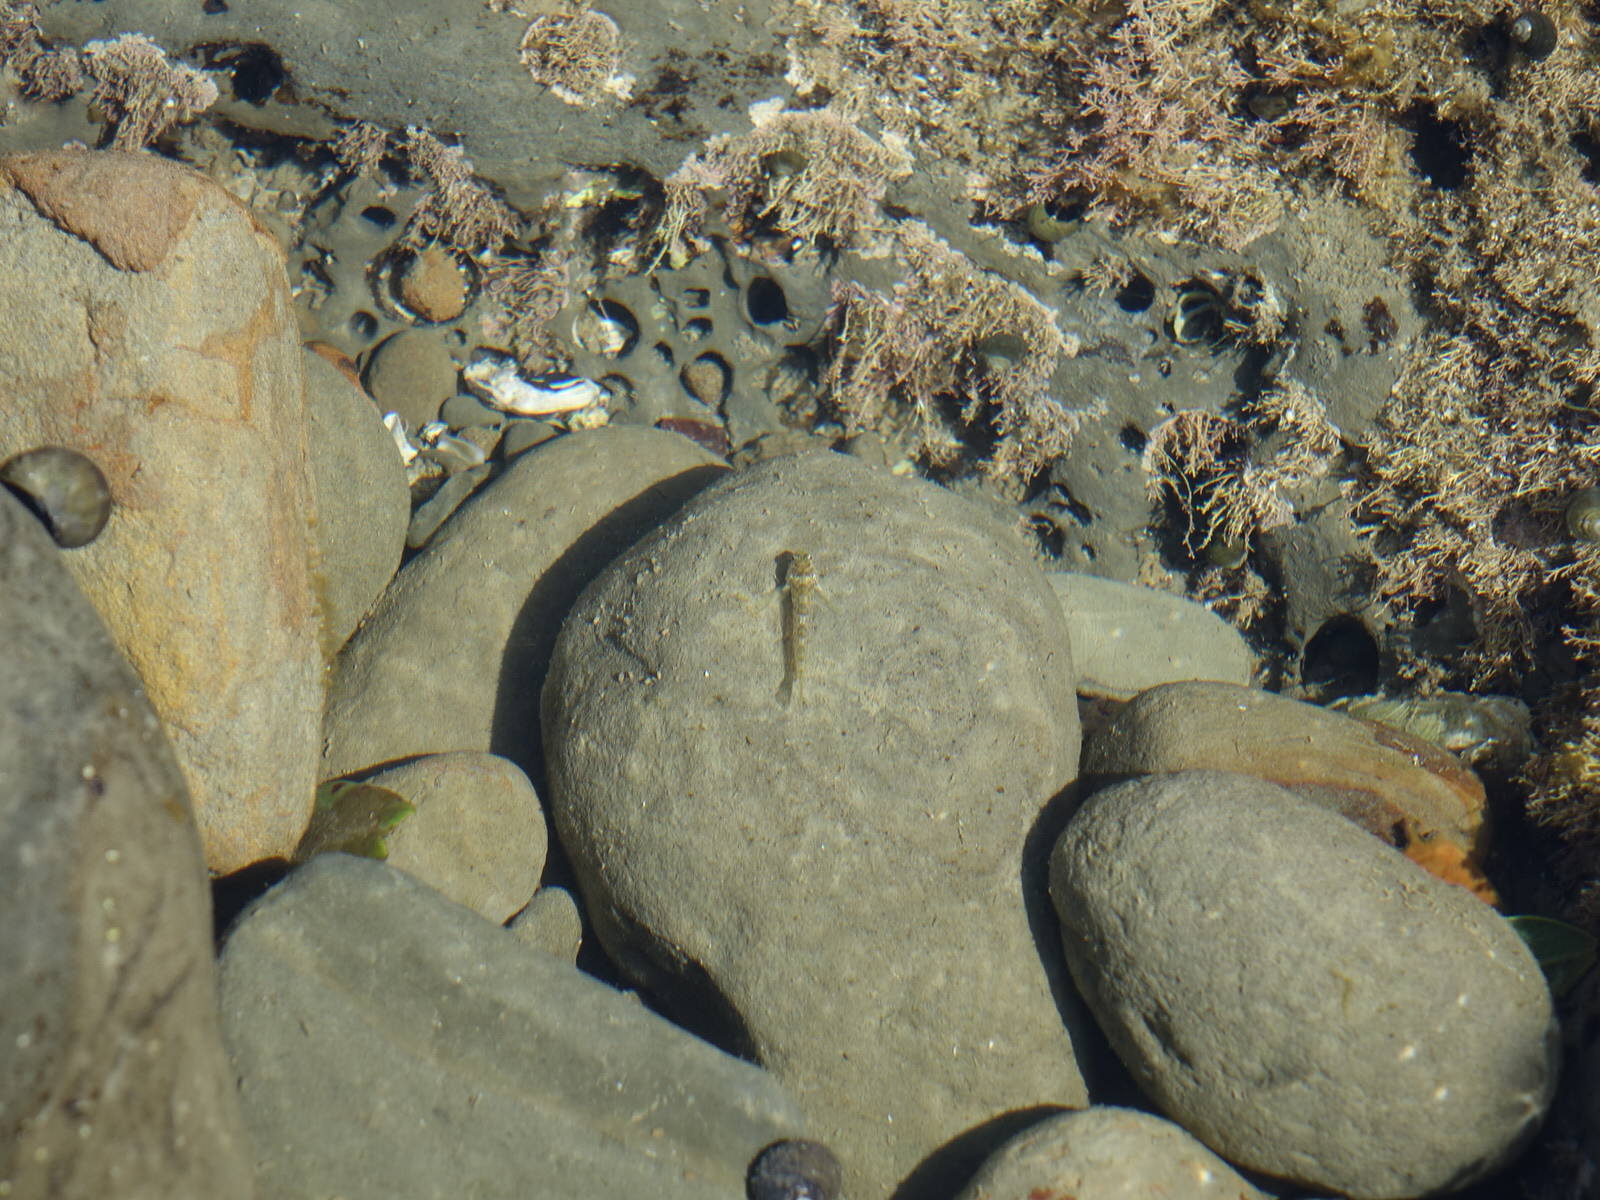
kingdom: Animalia
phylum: Chordata
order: Perciformes
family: Tripterygiidae
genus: Bellapiscis
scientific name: Bellapiscis medius
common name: Twister
